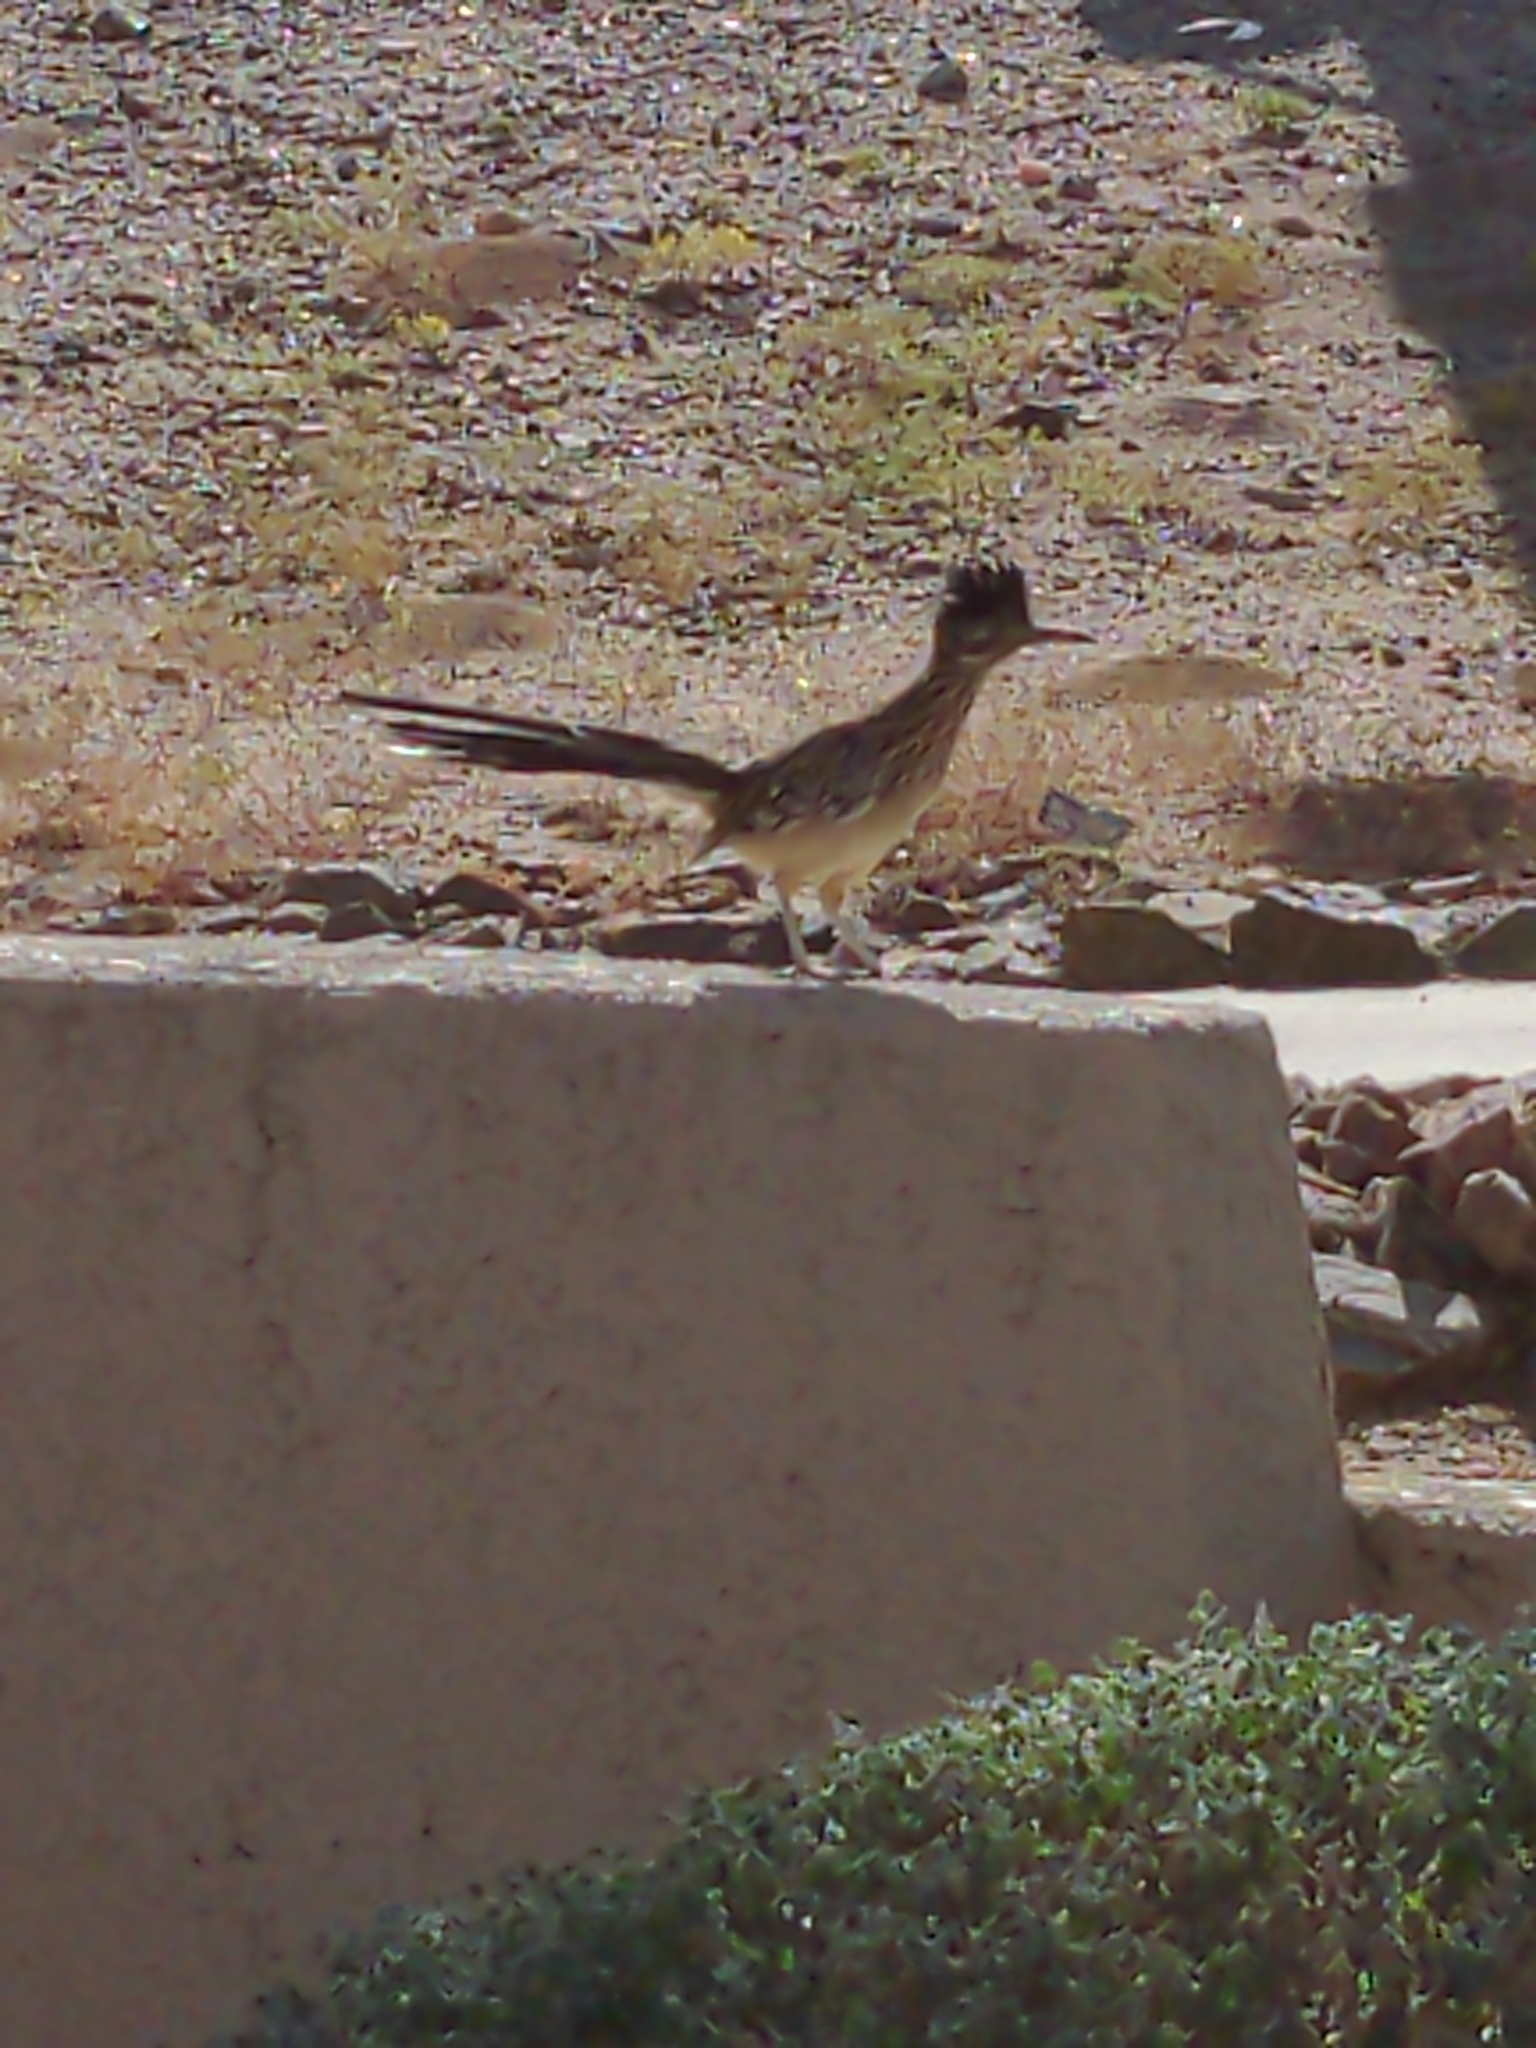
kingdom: Animalia
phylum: Chordata
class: Aves
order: Cuculiformes
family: Cuculidae
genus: Geococcyx
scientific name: Geococcyx californianus
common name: Greater roadrunner
